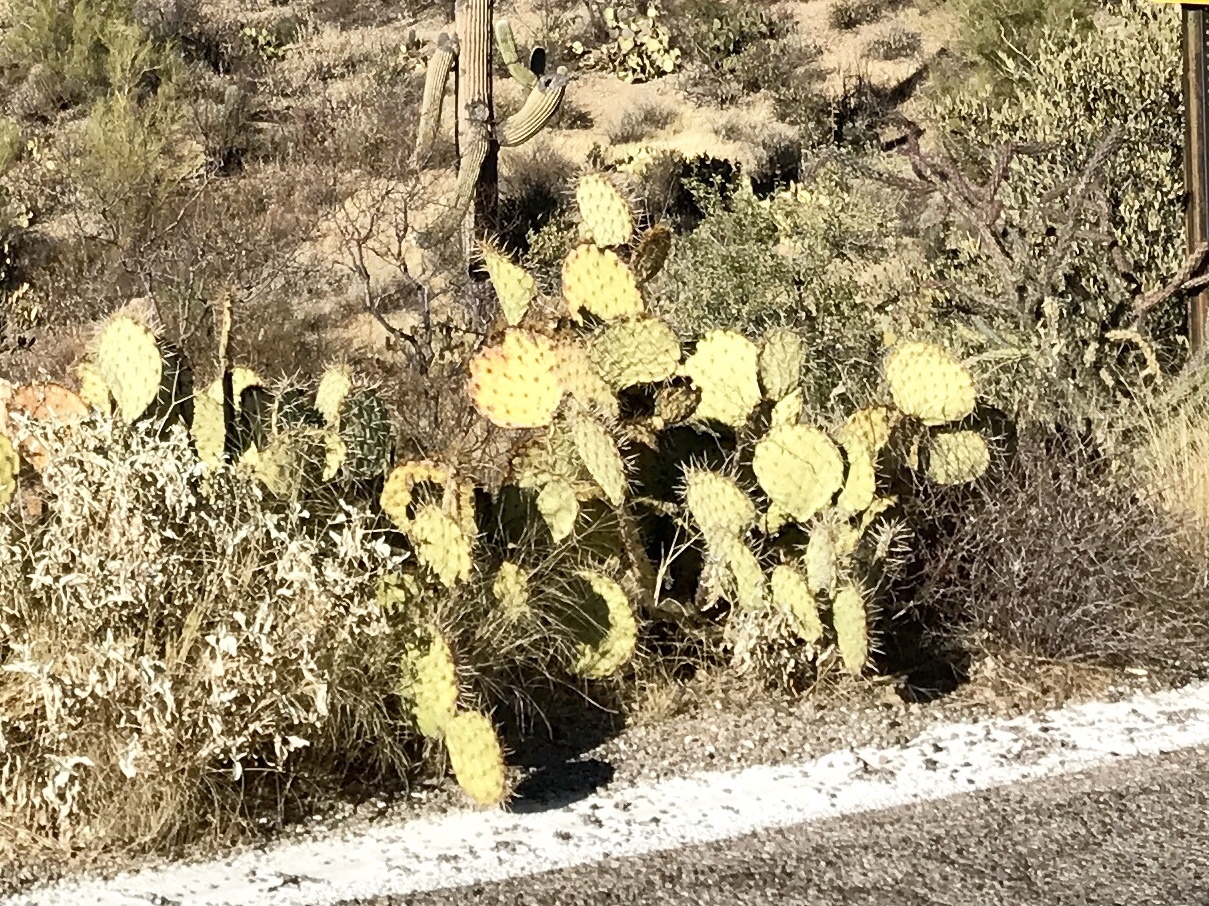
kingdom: Plantae
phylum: Tracheophyta
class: Magnoliopsida
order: Caryophyllales
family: Cactaceae
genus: Opuntia
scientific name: Opuntia chlorotica
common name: Dollar-joint prickly-pear
